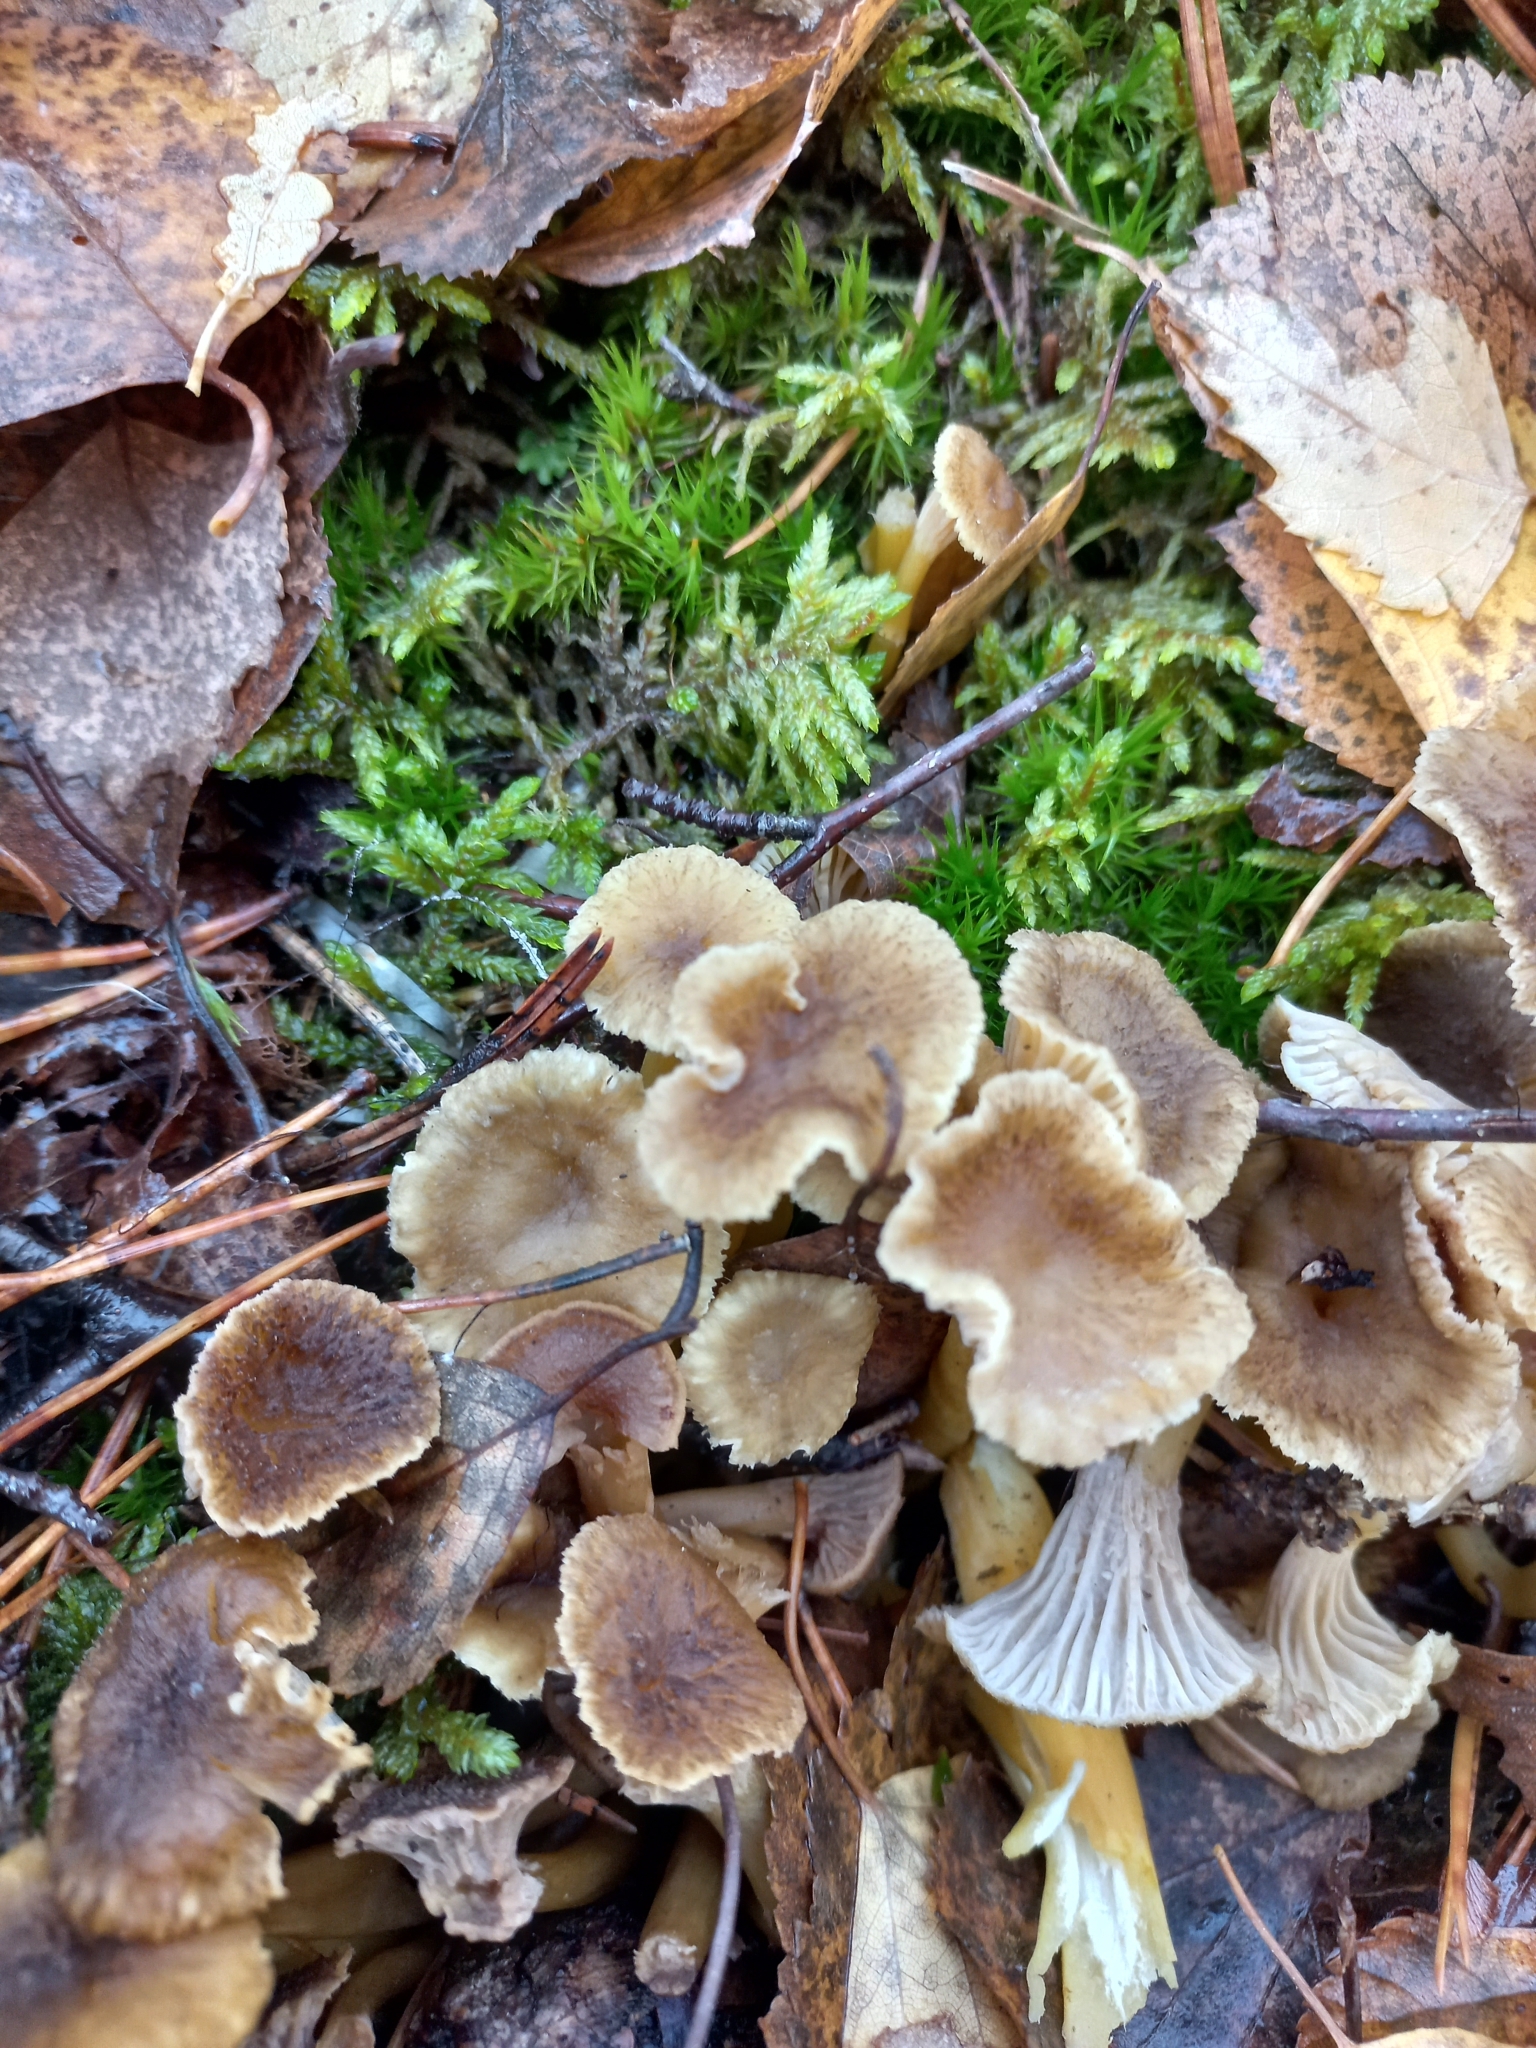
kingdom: Fungi
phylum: Basidiomycota
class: Agaricomycetes
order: Cantharellales
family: Hydnaceae
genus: Craterellus
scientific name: Craterellus tubaeformis
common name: Yellowfoot
